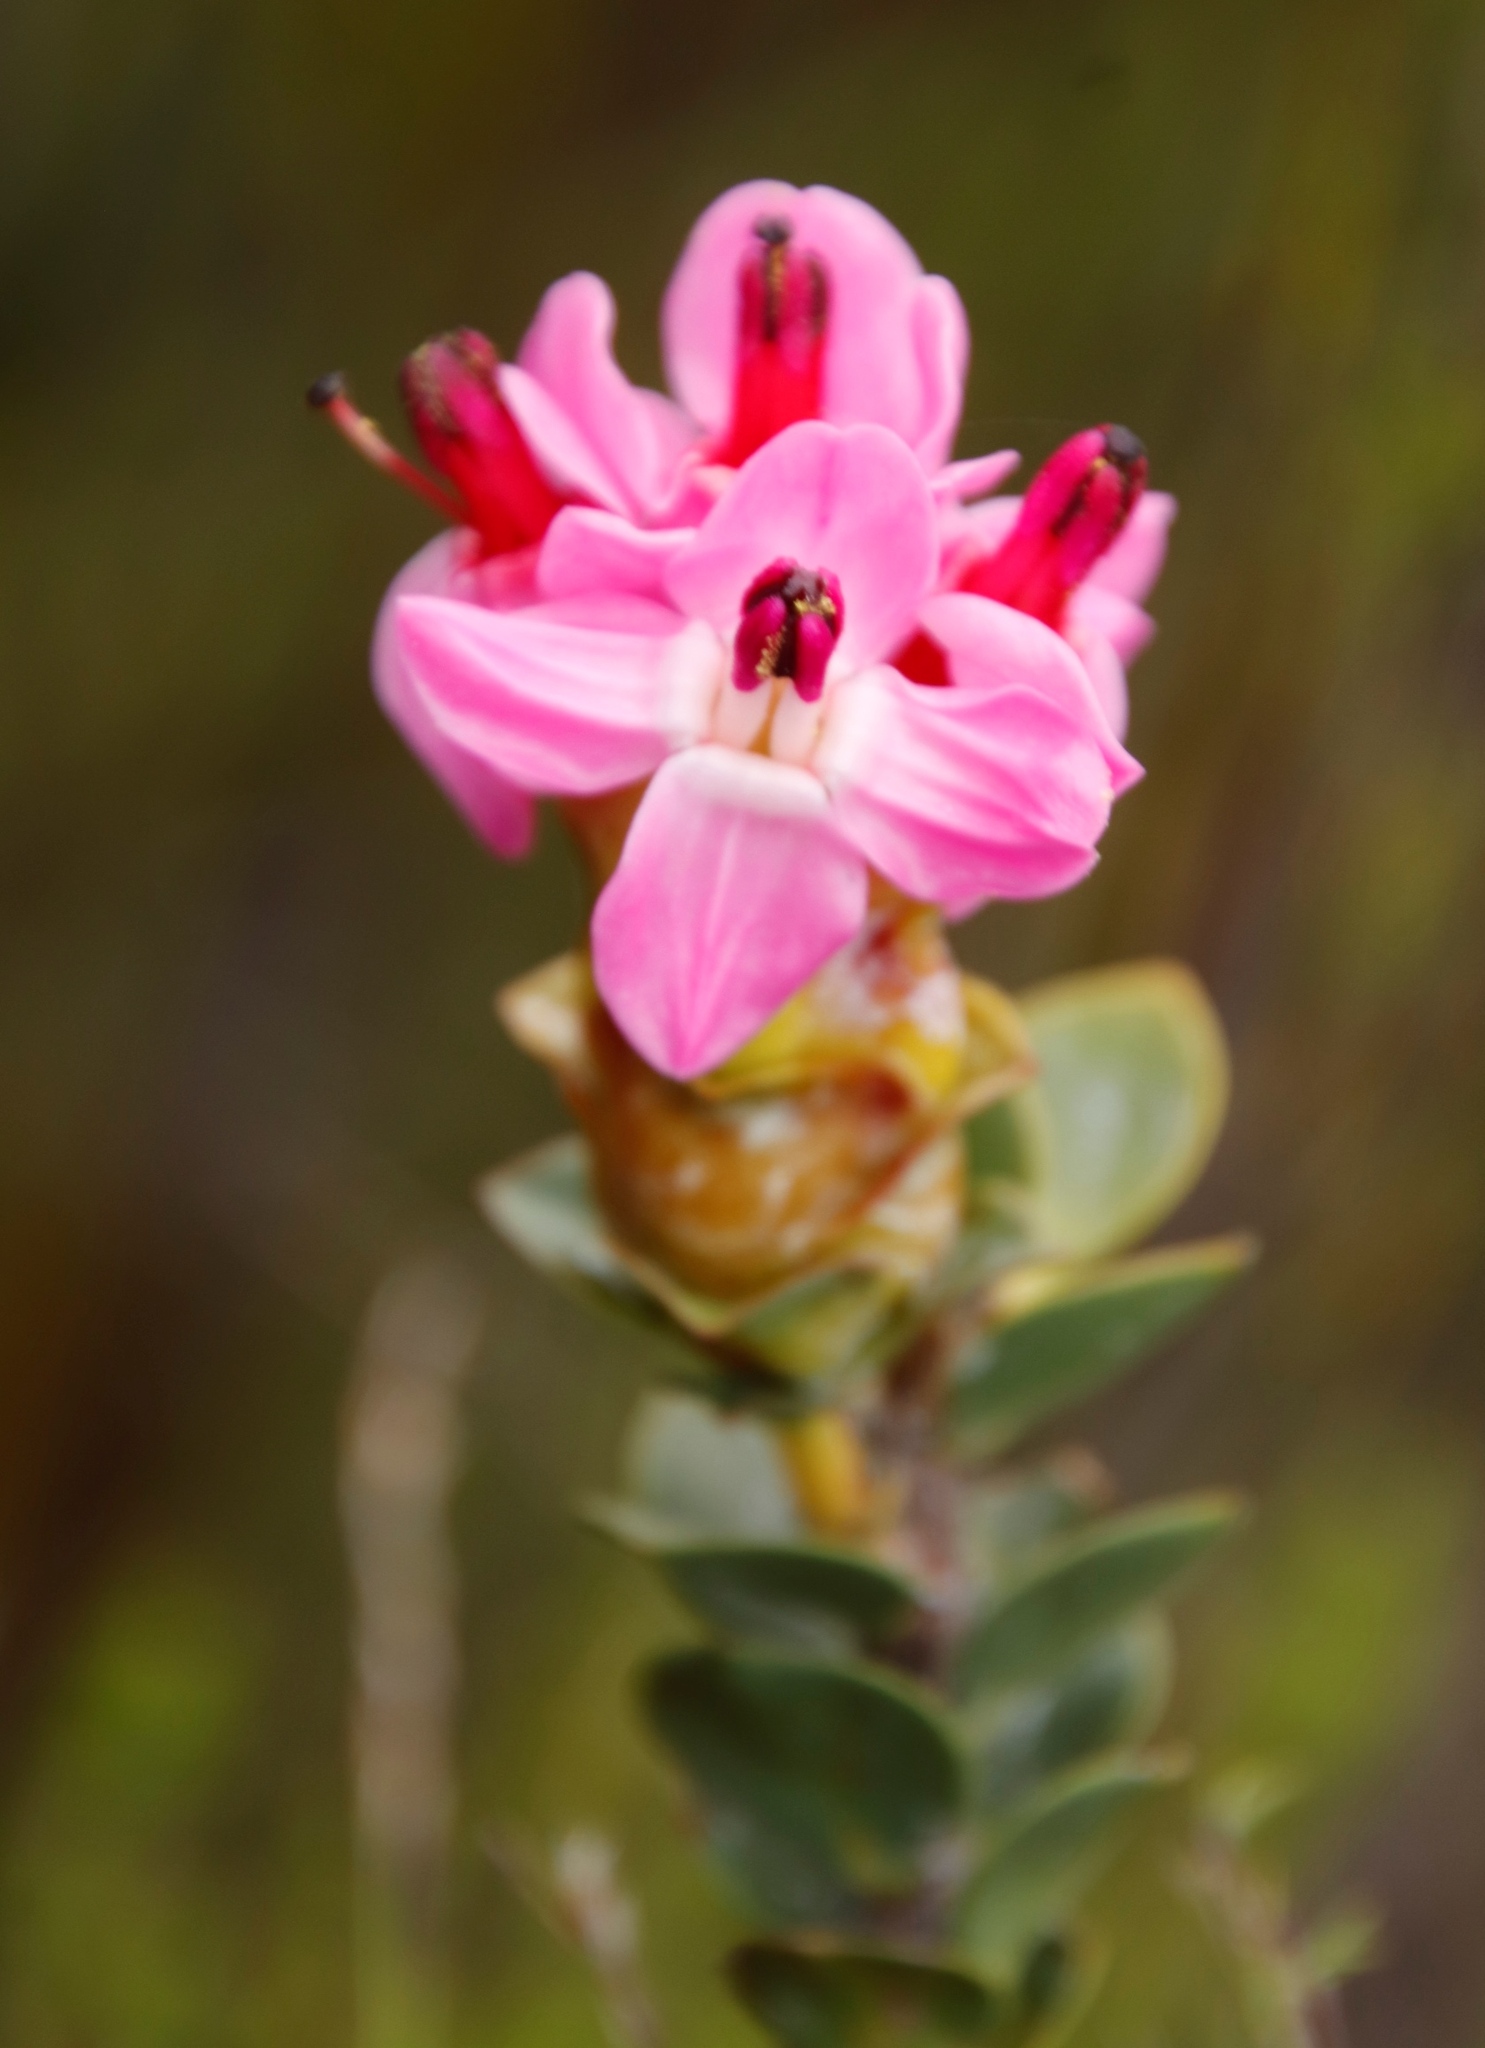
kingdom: Plantae
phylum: Tracheophyta
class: Magnoliopsida
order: Myrtales
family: Penaeaceae
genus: Saltera
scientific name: Saltera sarcocolla
